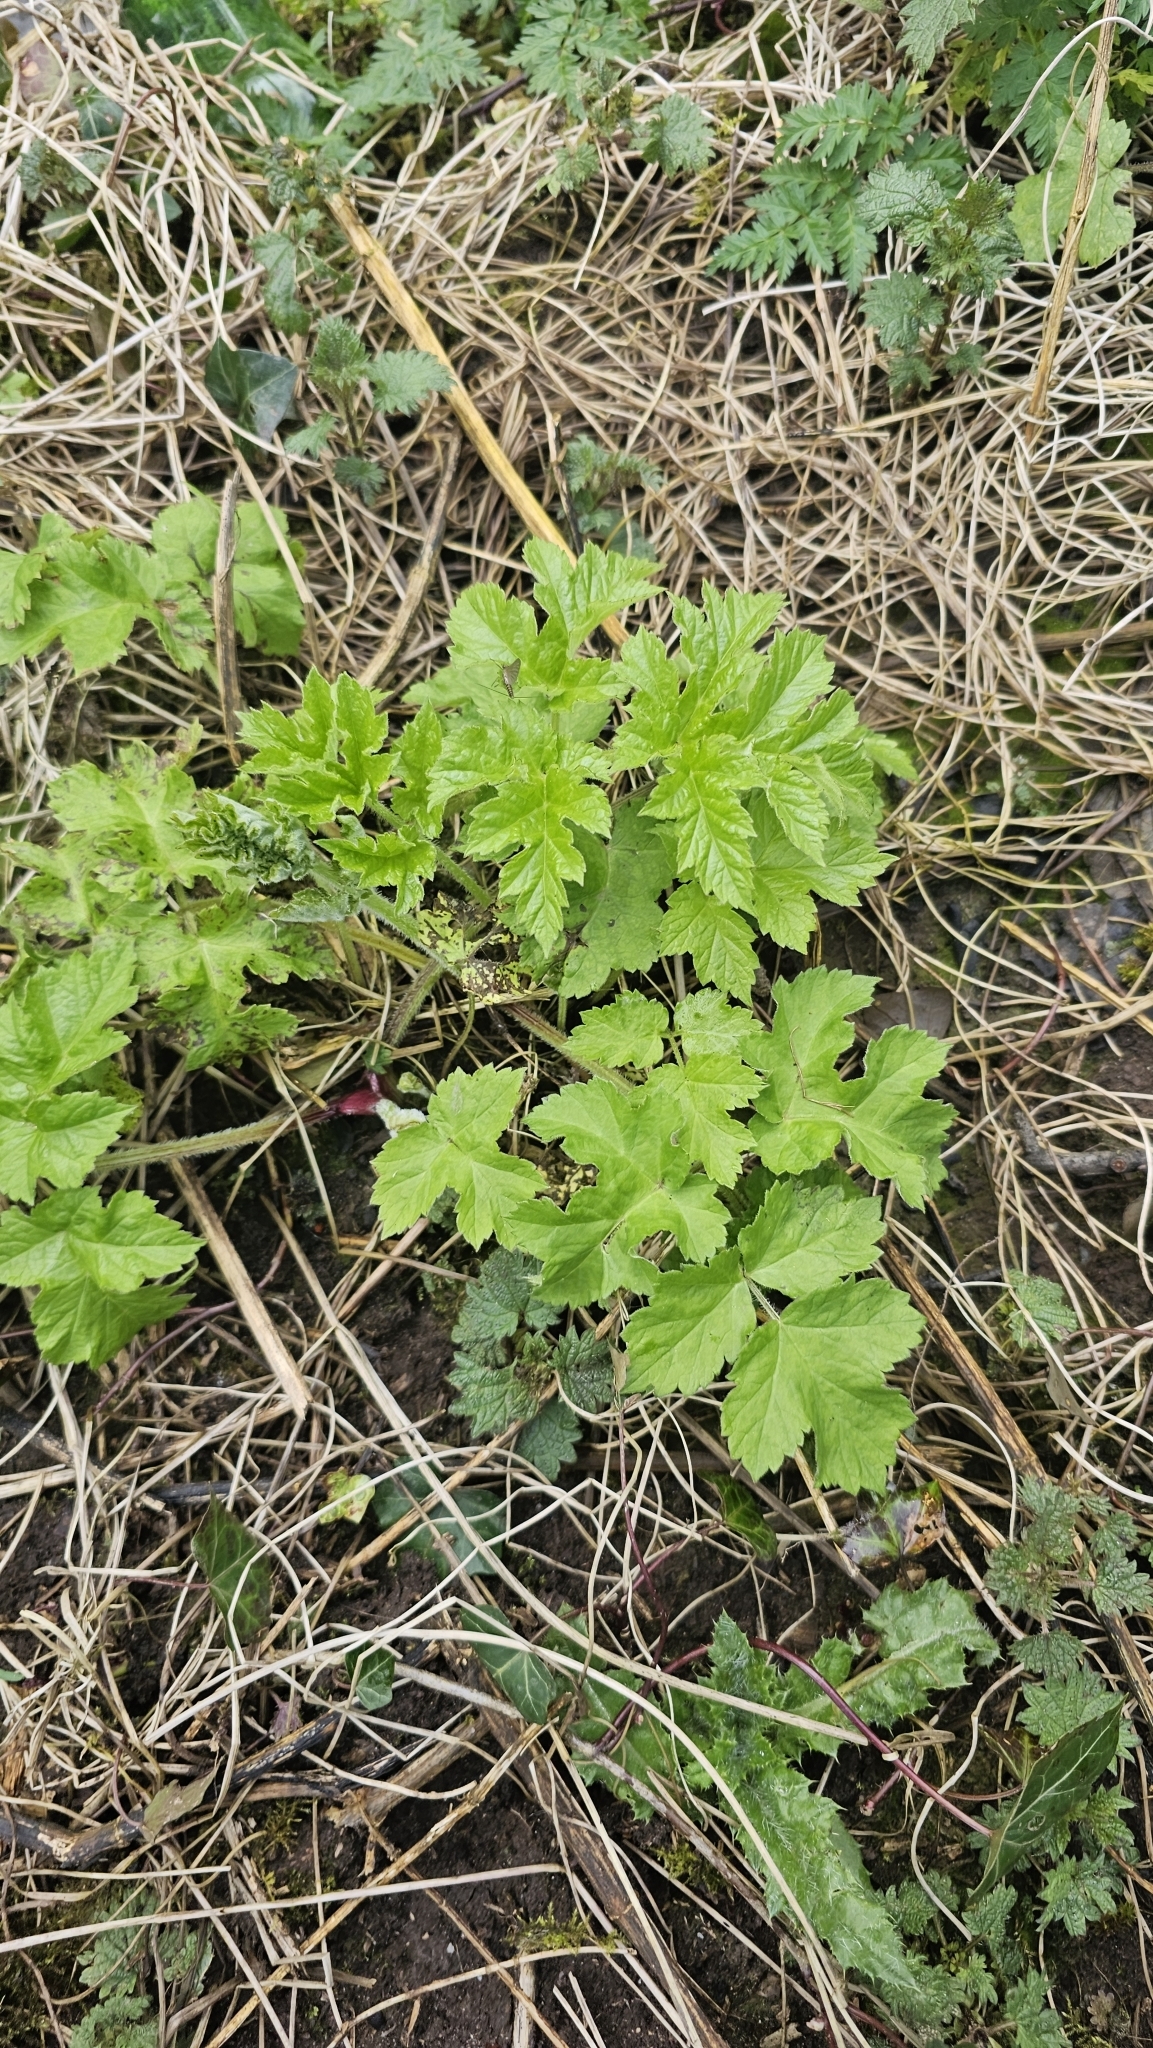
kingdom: Plantae
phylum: Tracheophyta
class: Magnoliopsida
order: Apiales
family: Apiaceae
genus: Heracleum
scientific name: Heracleum sphondylium
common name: Hogweed
